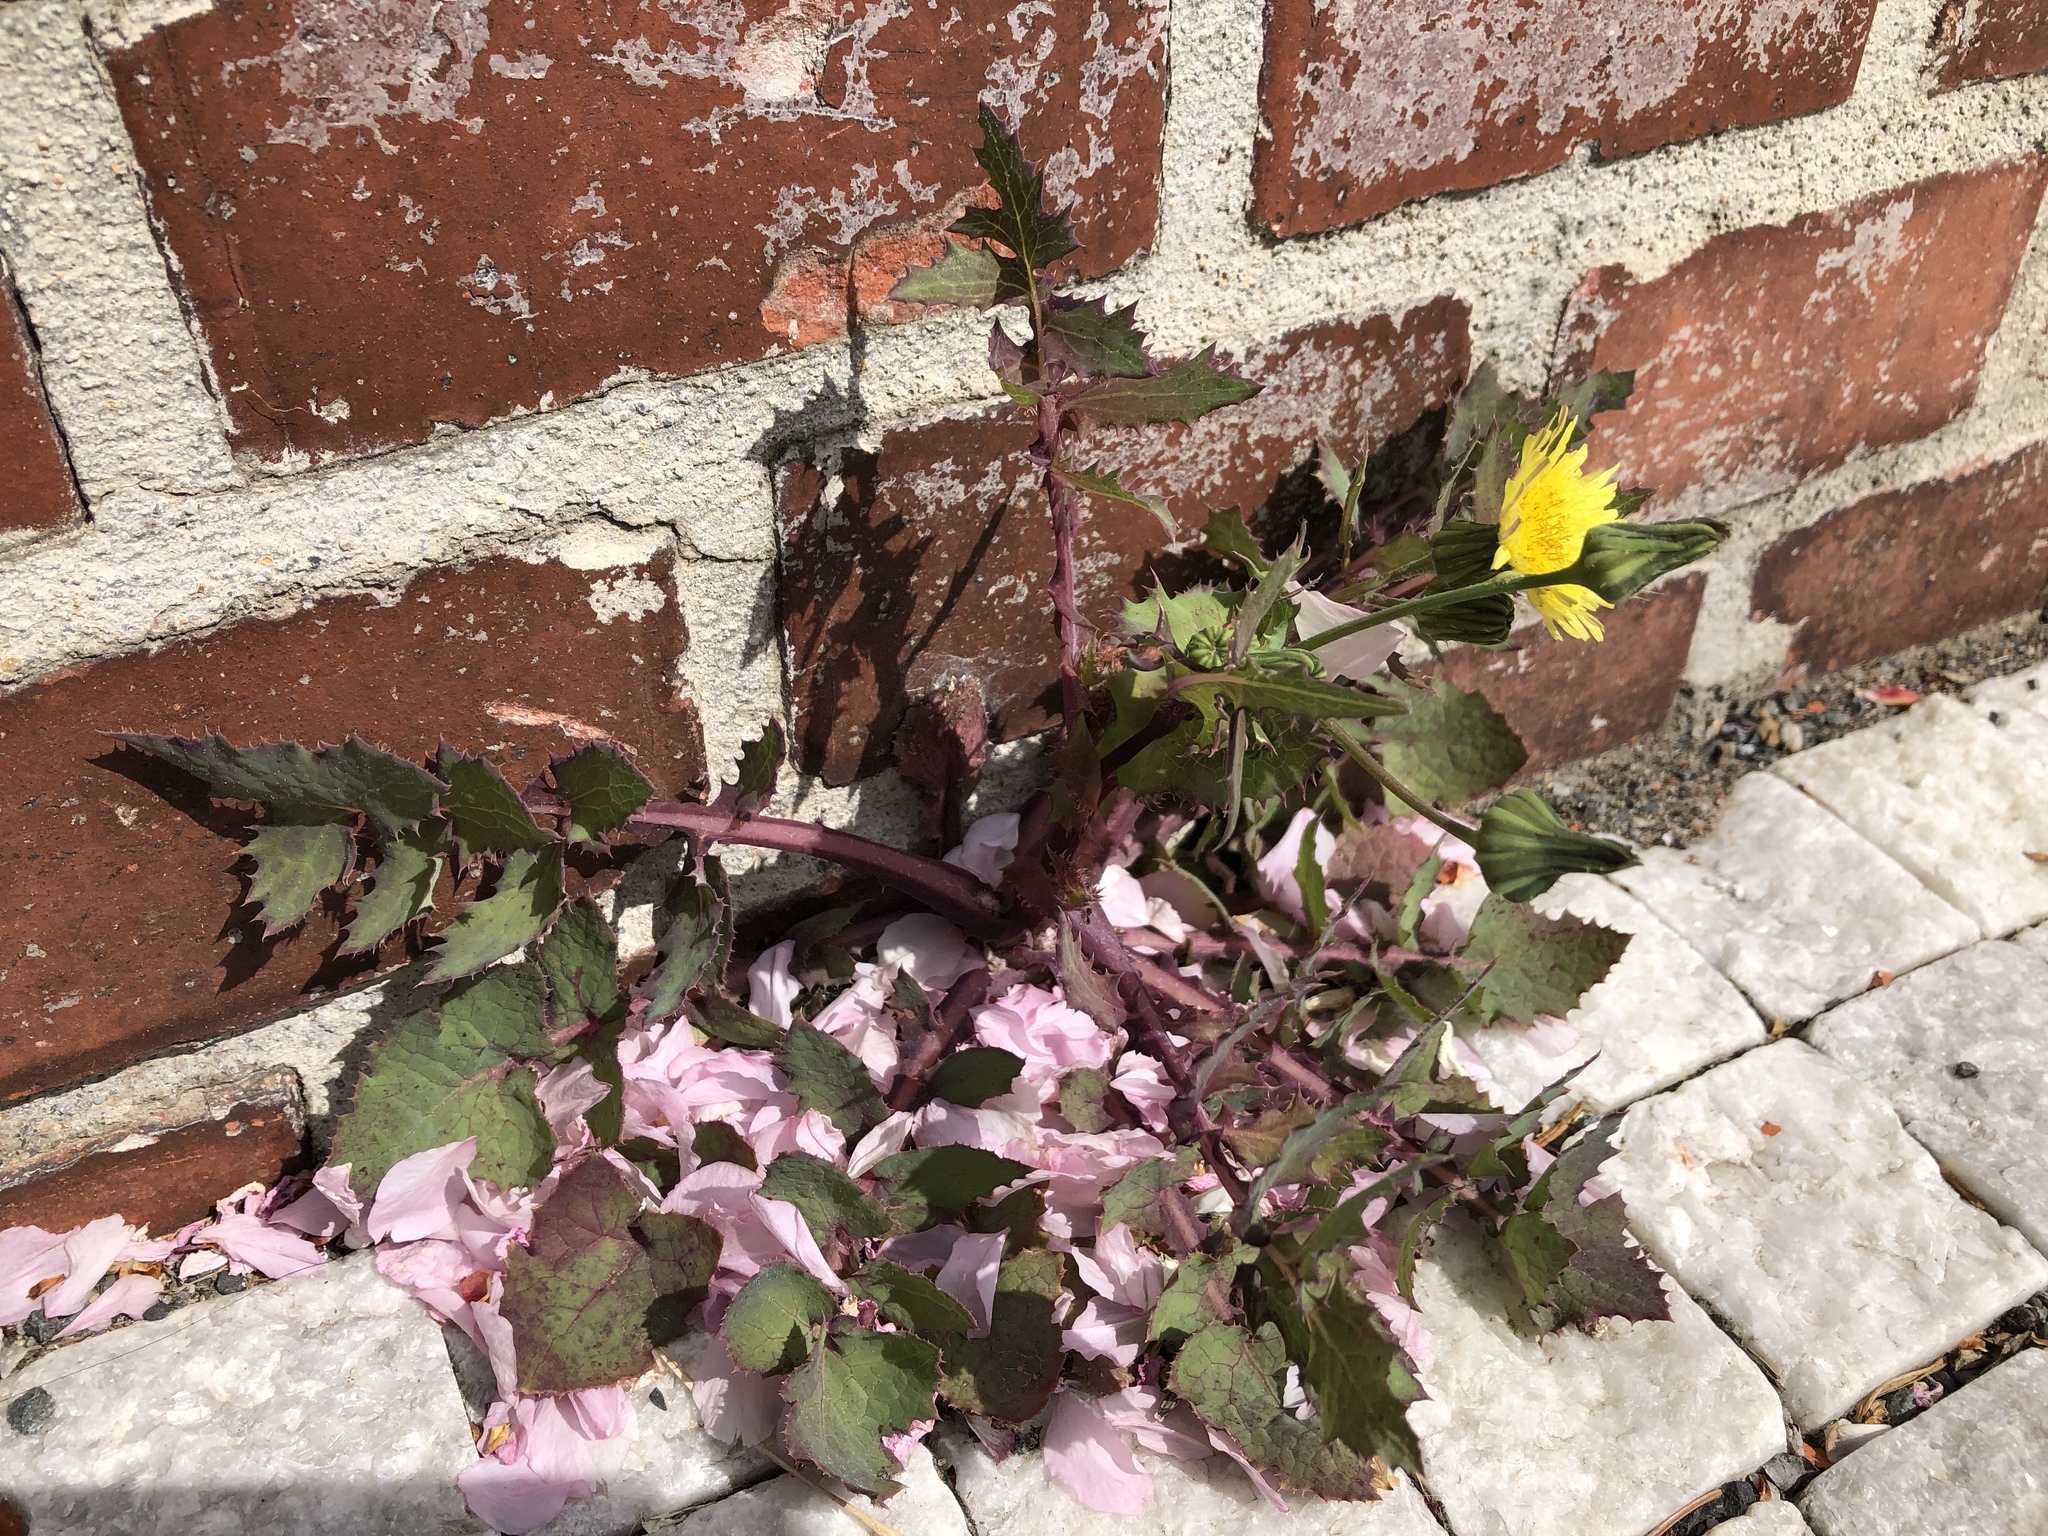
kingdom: Plantae
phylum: Tracheophyta
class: Magnoliopsida
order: Asterales
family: Asteraceae
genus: Sonchus
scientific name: Sonchus oleraceus
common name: Common sowthistle
